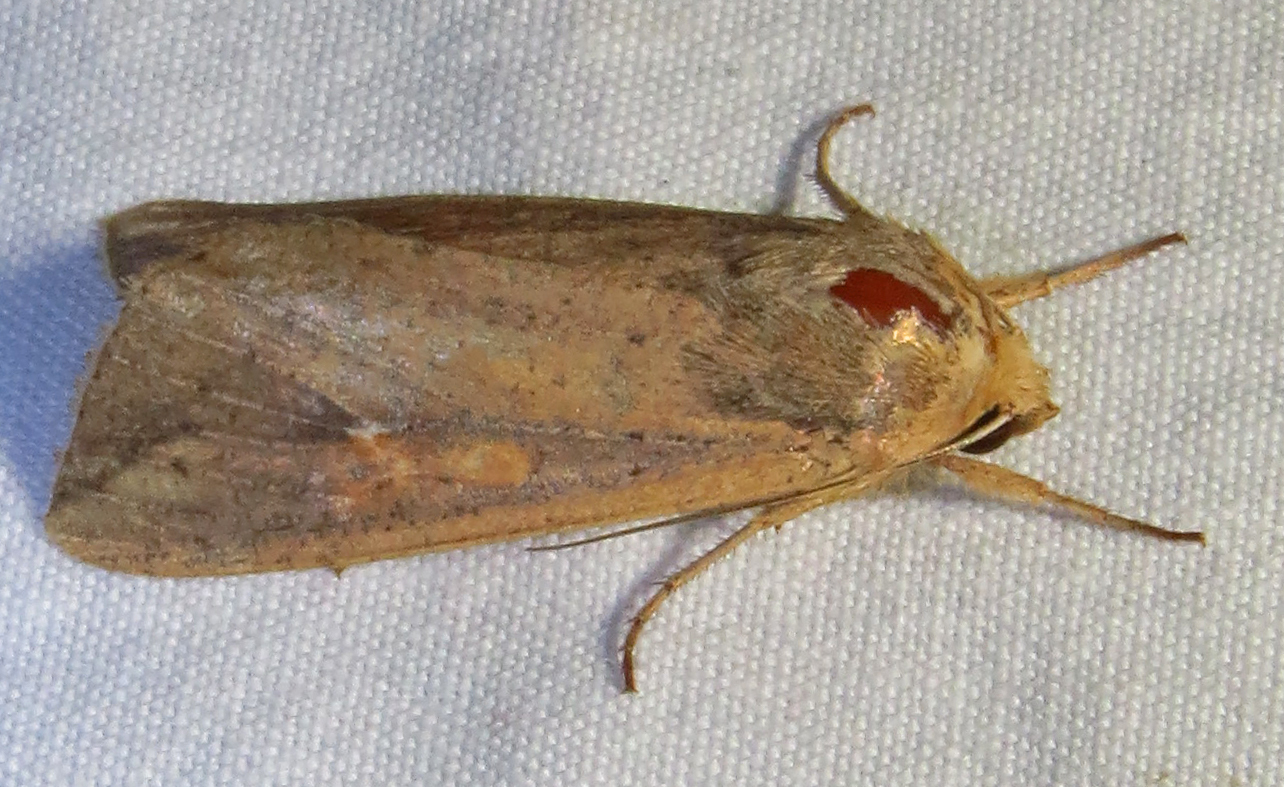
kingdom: Animalia
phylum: Arthropoda
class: Insecta
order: Lepidoptera
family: Noctuidae
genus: Mythimna
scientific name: Mythimna unipuncta
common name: White-speck
